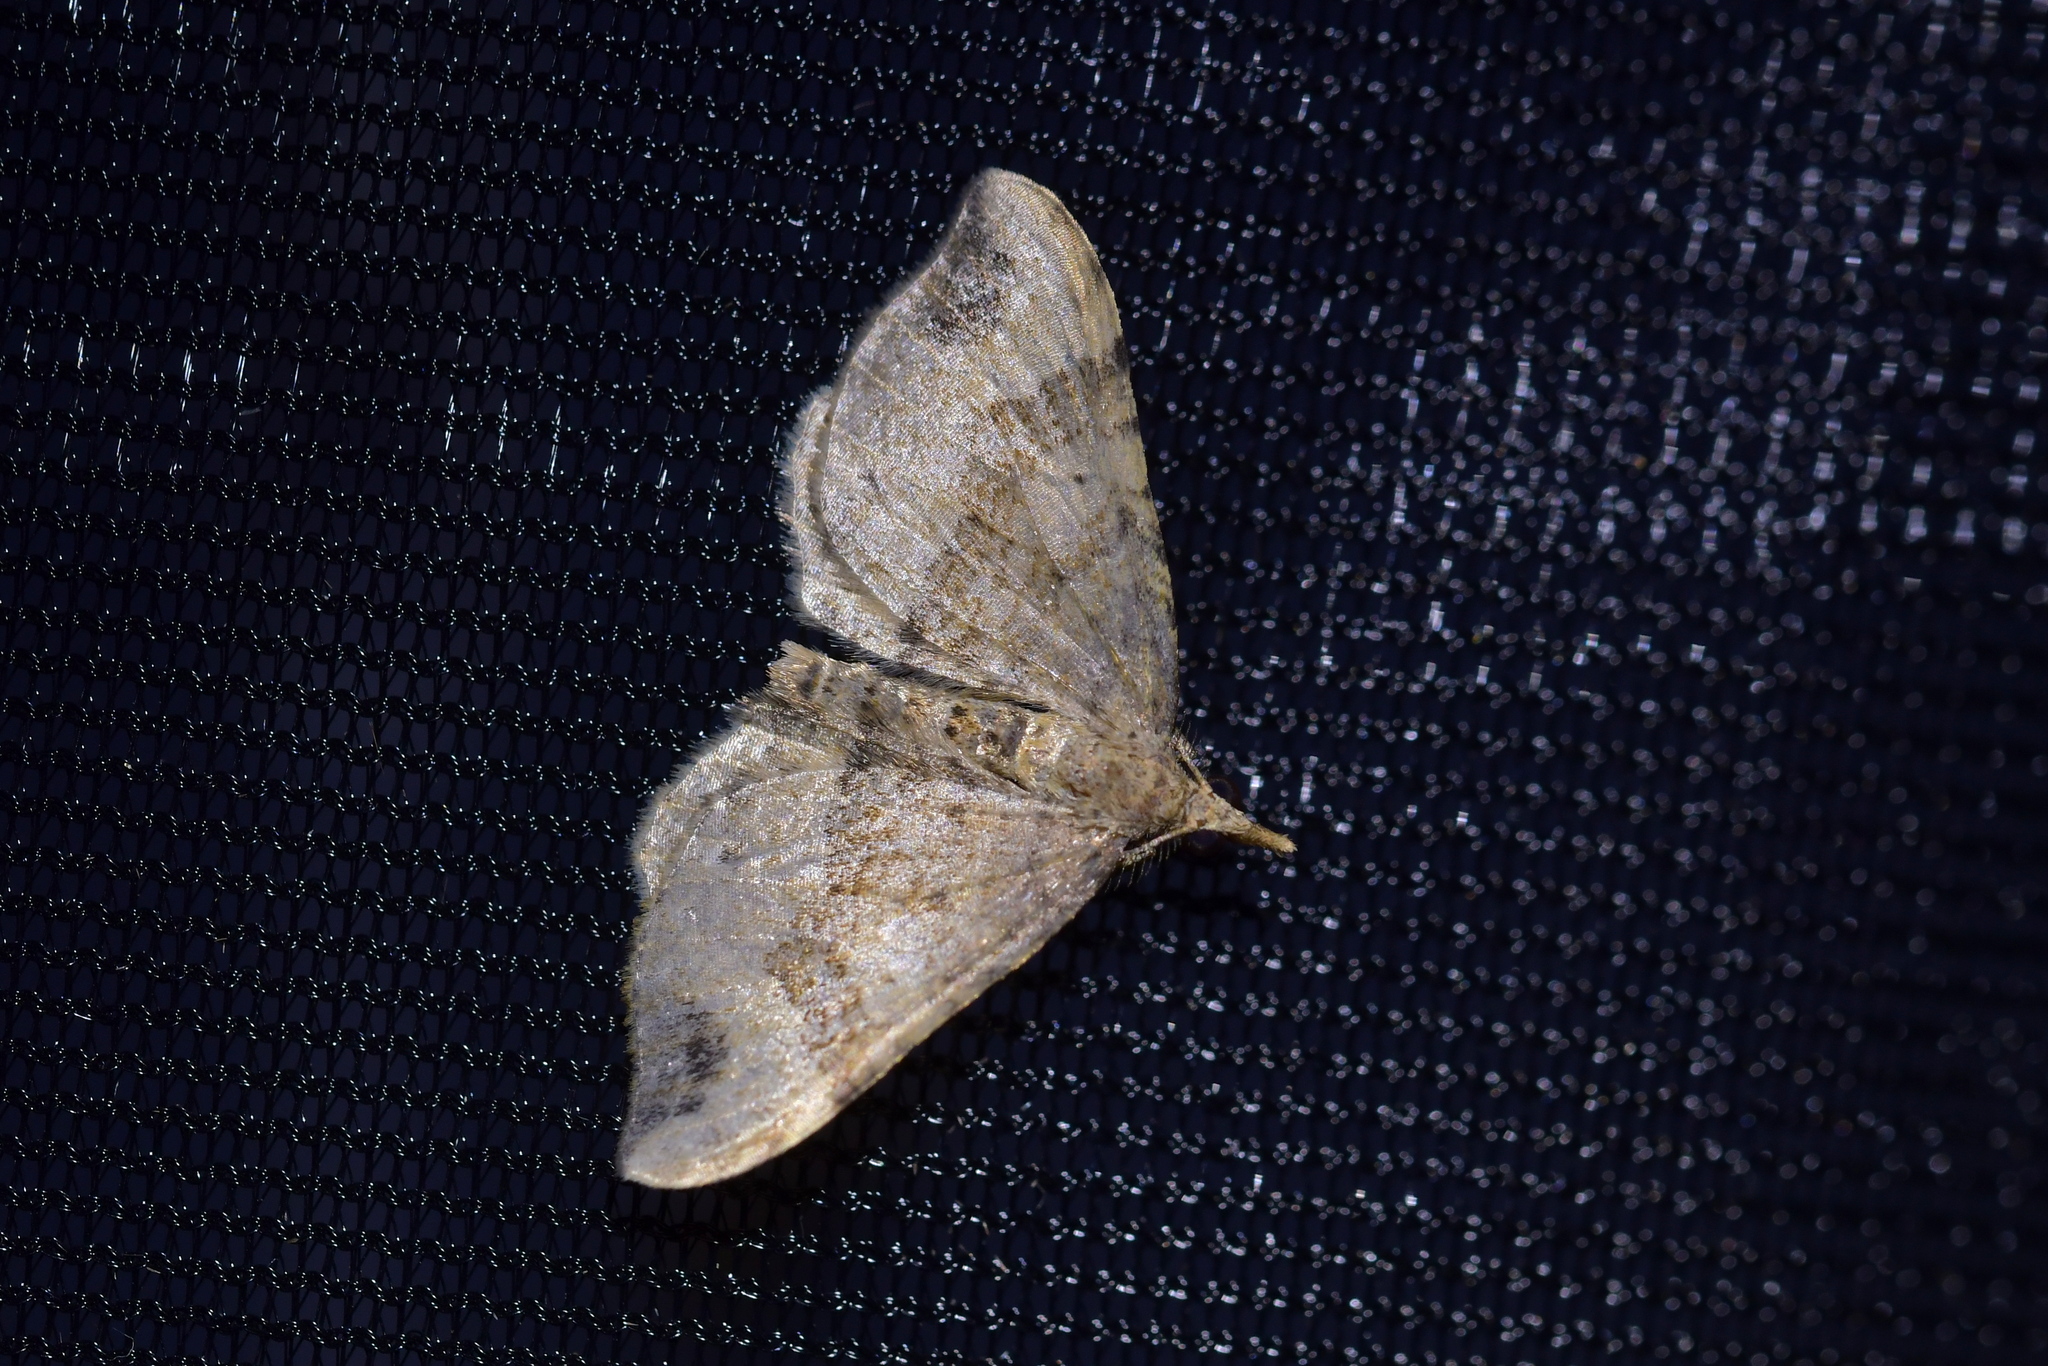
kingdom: Animalia
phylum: Arthropoda
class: Insecta
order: Lepidoptera
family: Geometridae
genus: Homodotis
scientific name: Homodotis megaspilata
